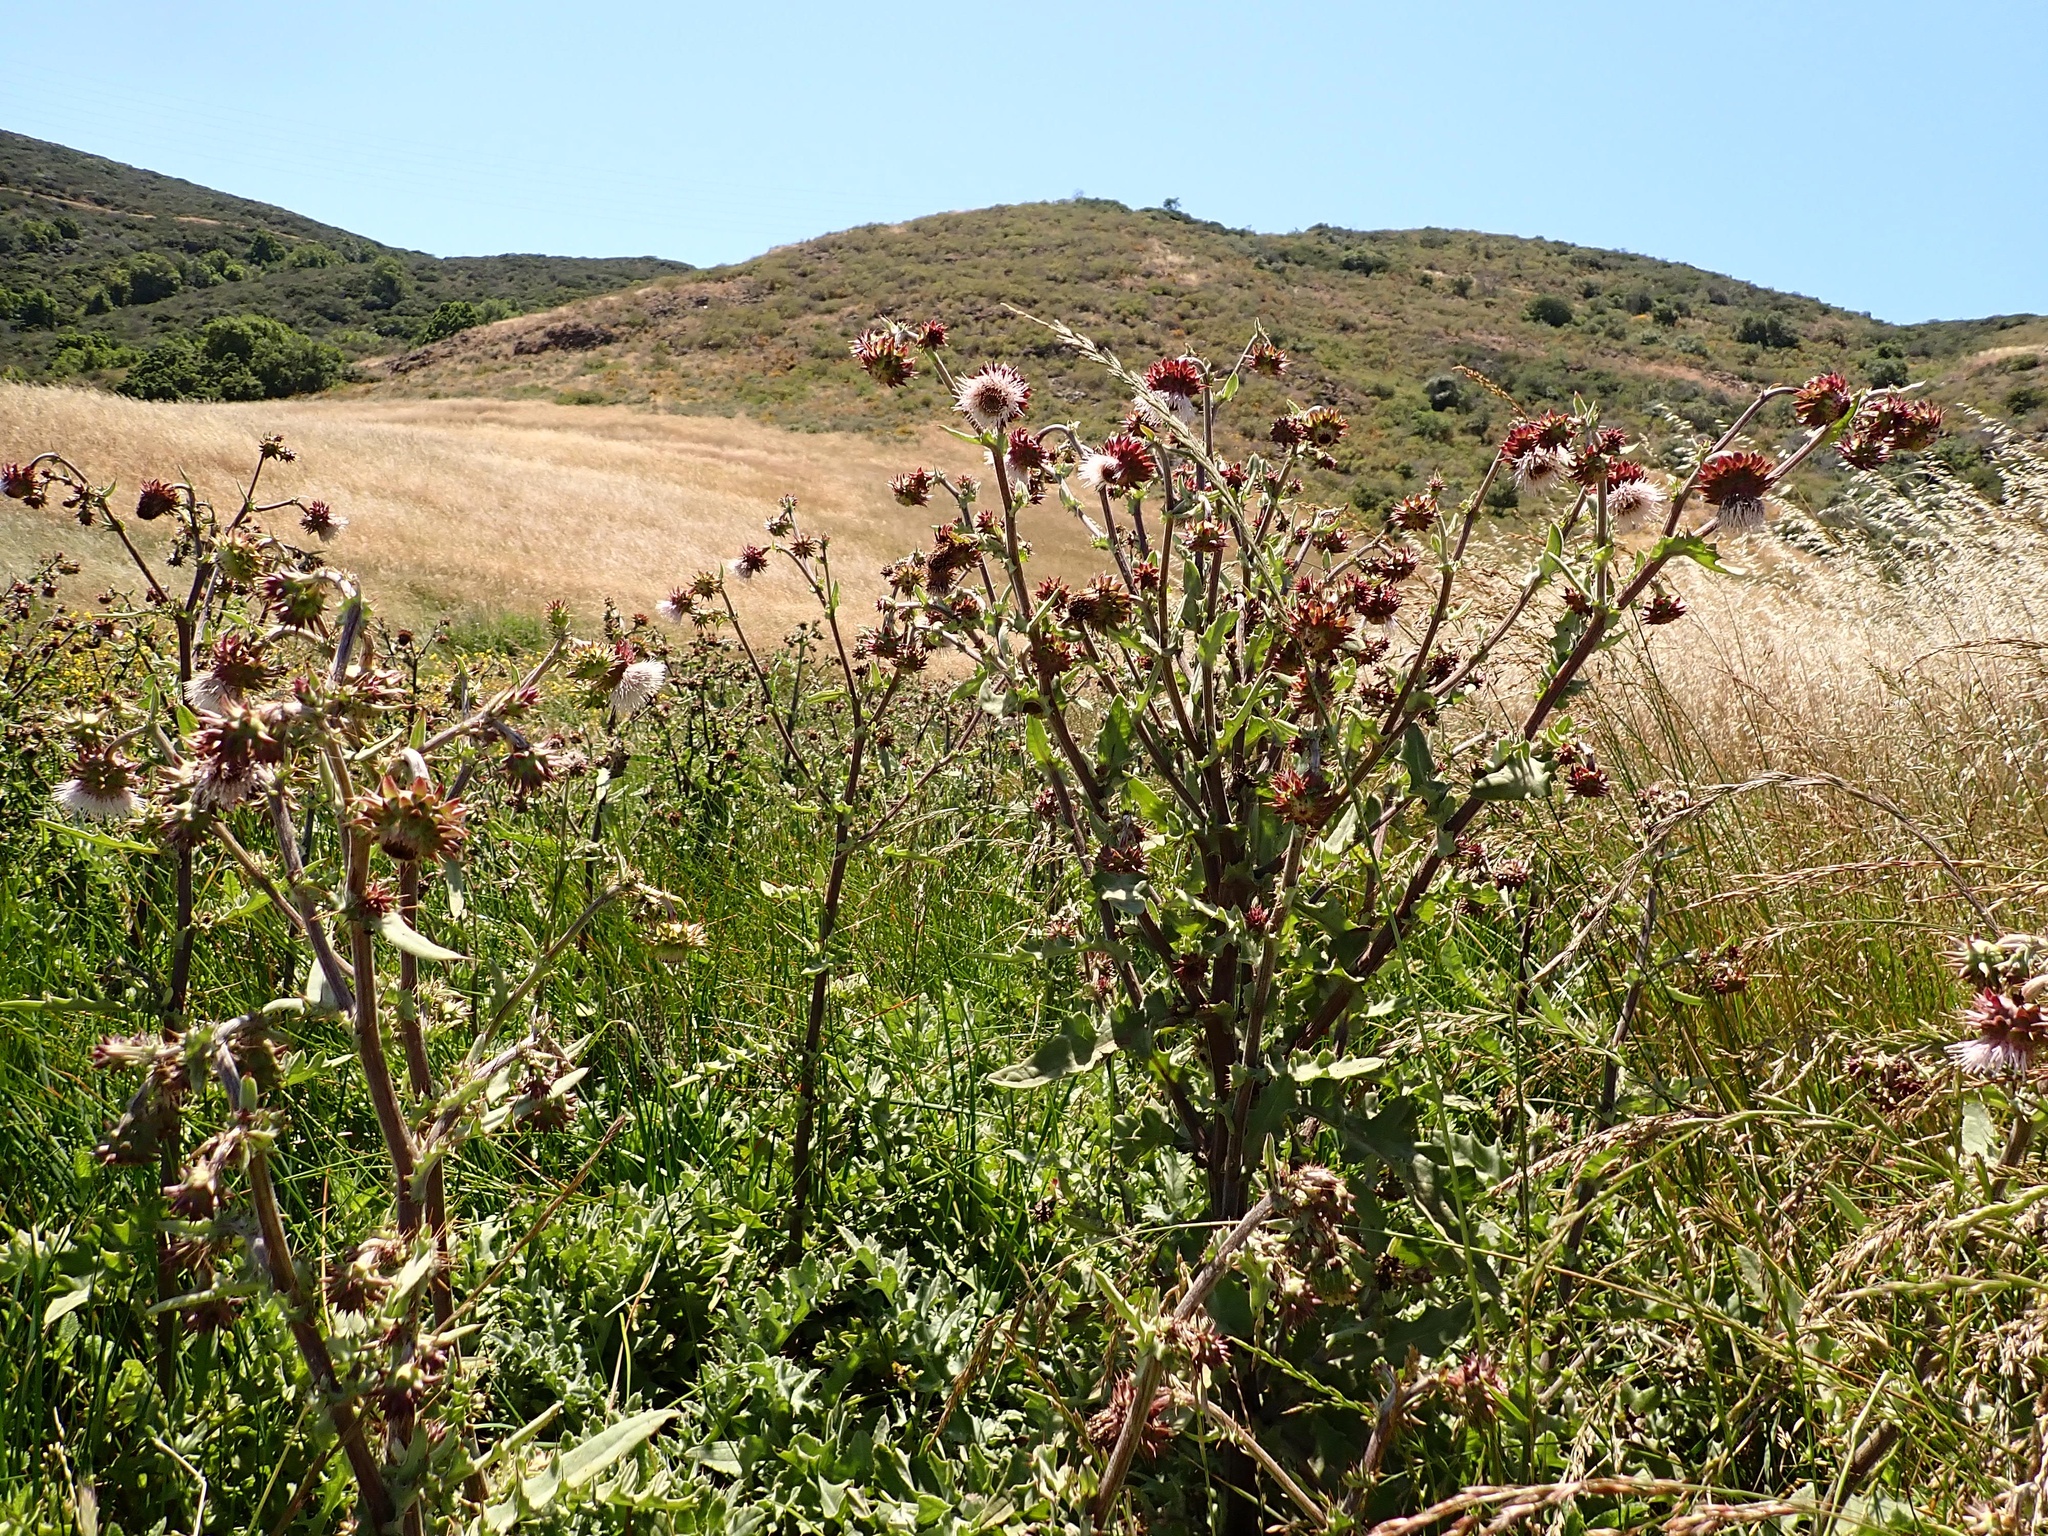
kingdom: Plantae
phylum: Tracheophyta
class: Magnoliopsida
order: Asterales
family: Asteraceae
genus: Cirsium
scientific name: Cirsium fontinale
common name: Fountain thistle
